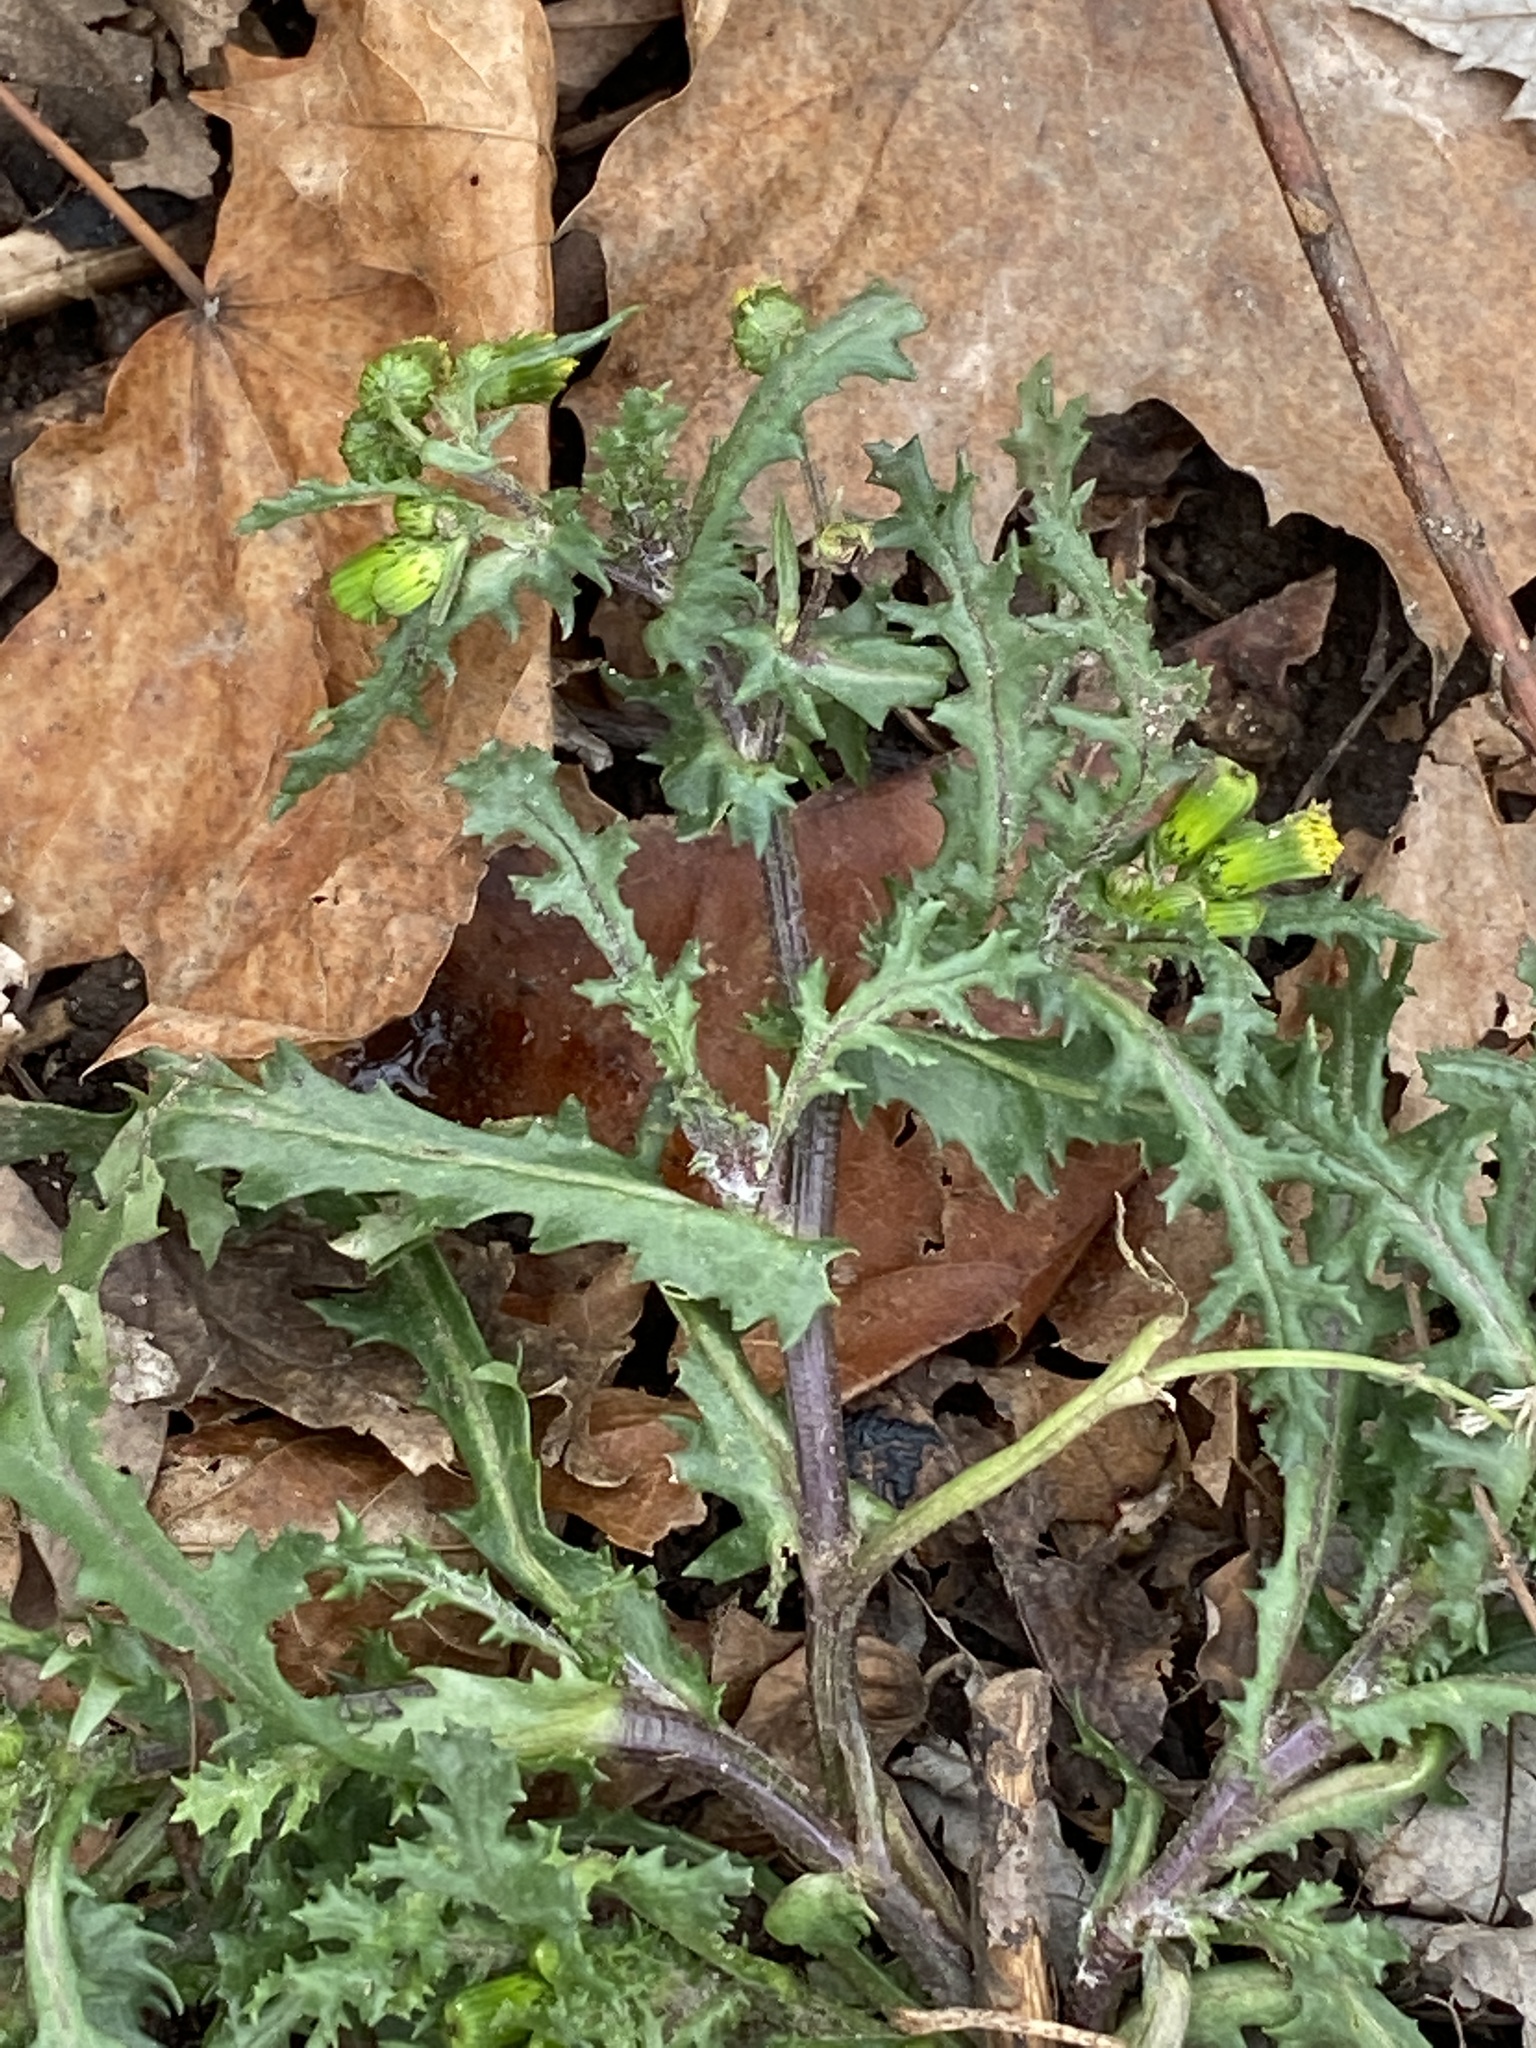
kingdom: Plantae
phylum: Tracheophyta
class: Magnoliopsida
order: Asterales
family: Asteraceae
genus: Senecio
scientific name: Senecio vulgaris
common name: Old-man-in-the-spring
